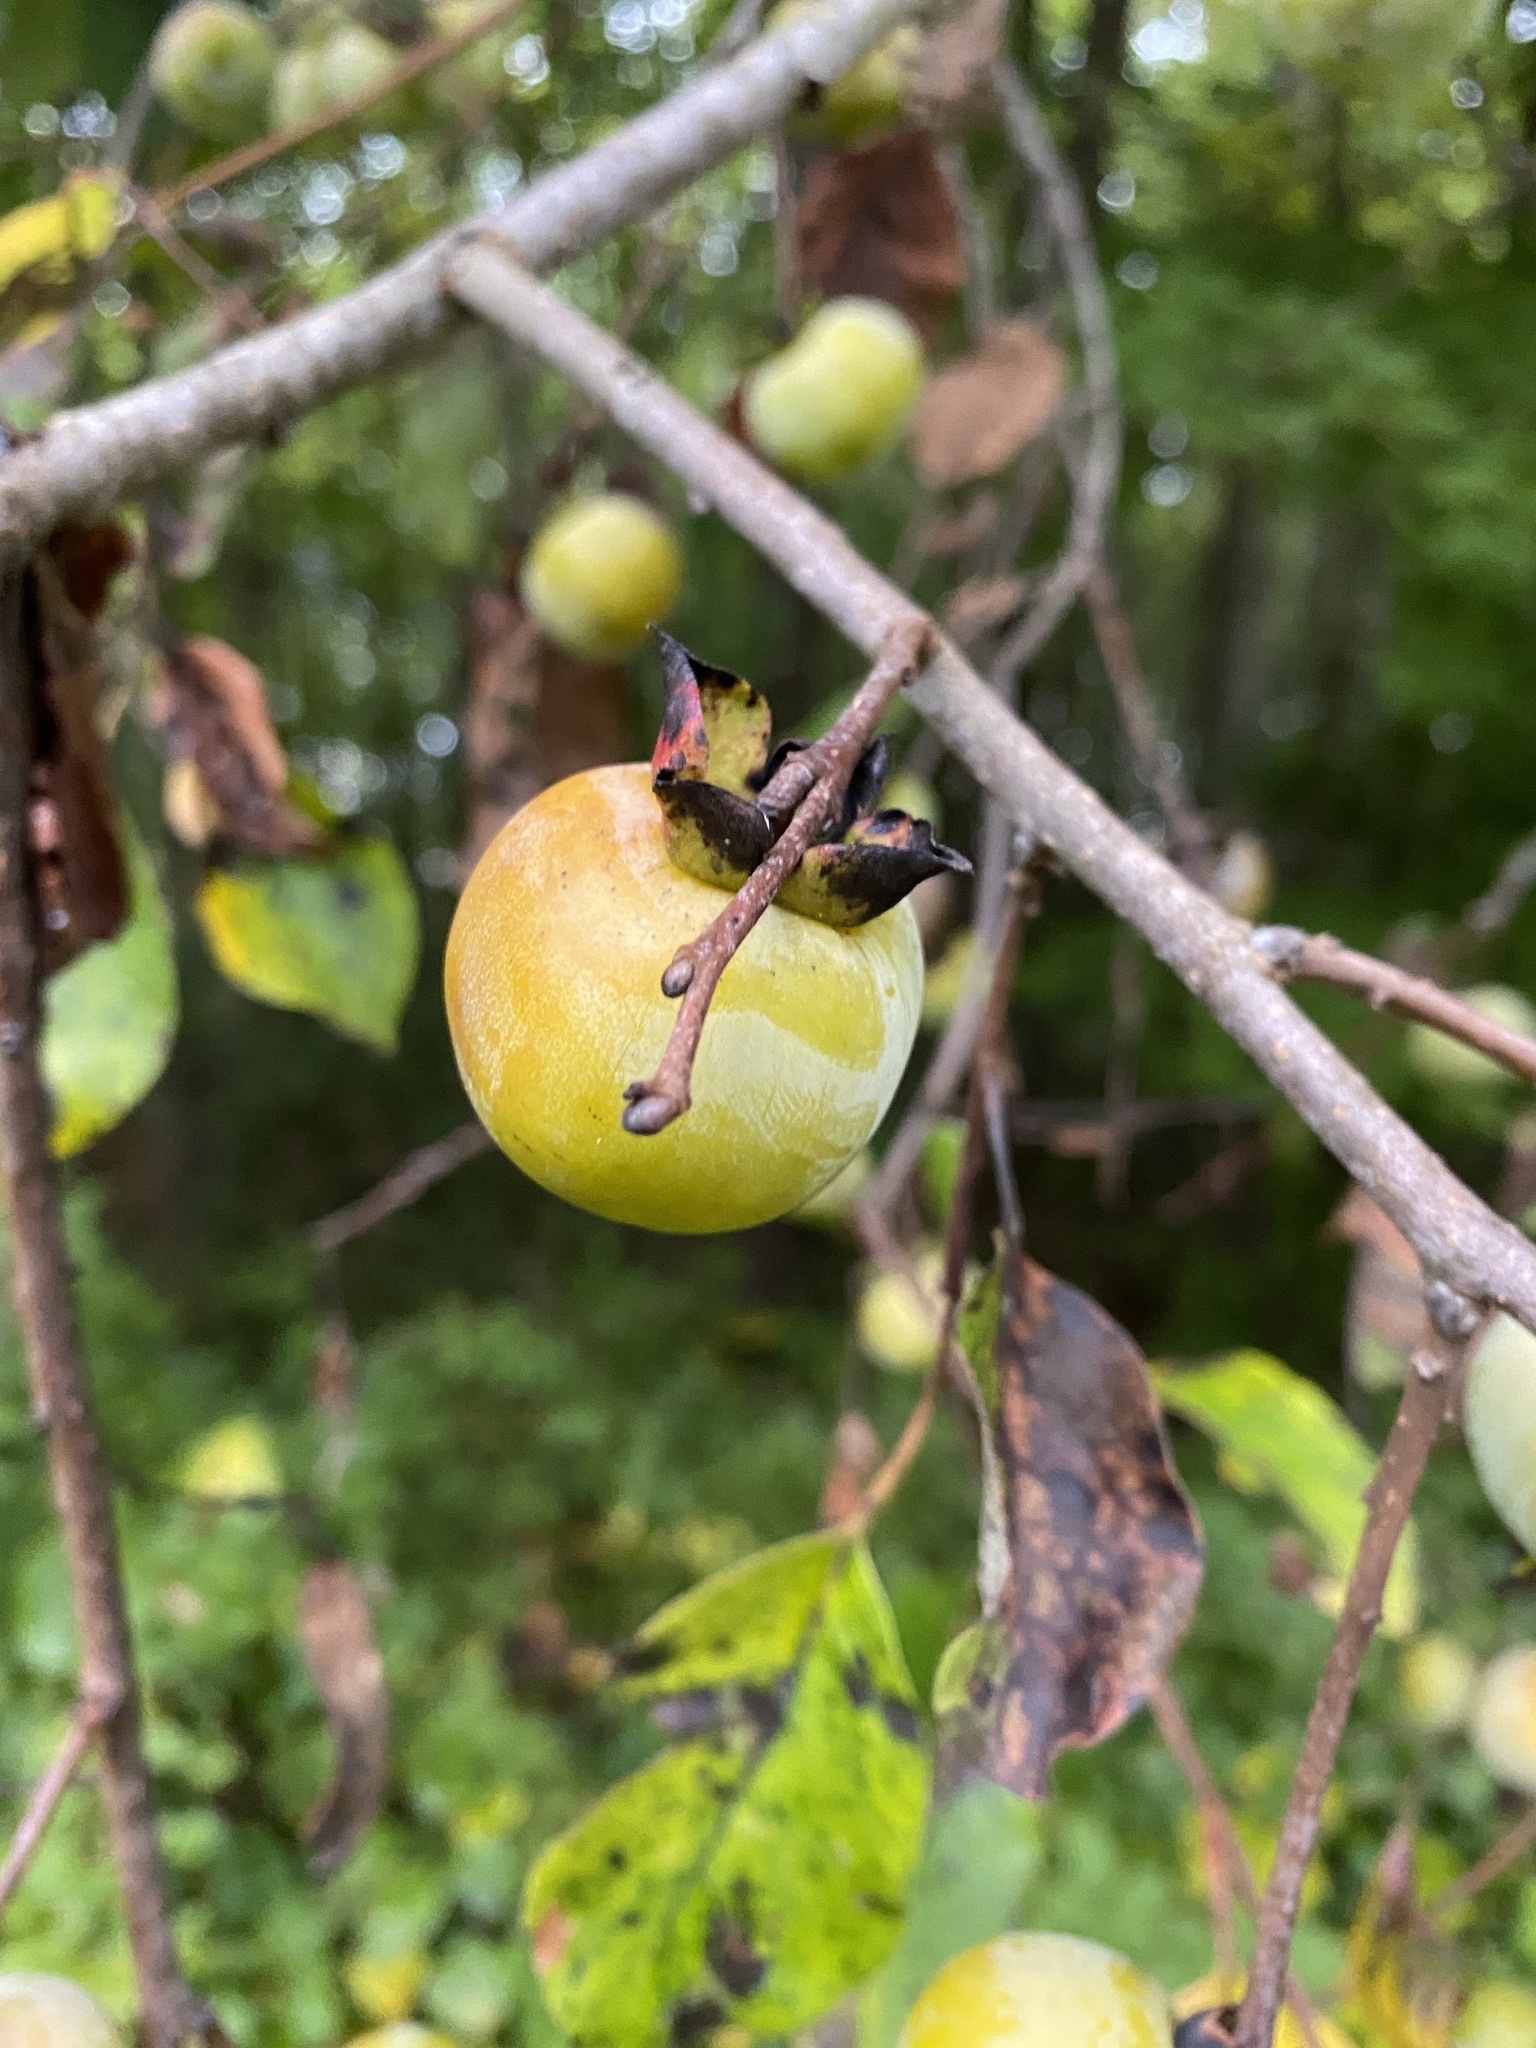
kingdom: Plantae
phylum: Tracheophyta
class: Magnoliopsida
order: Ericales
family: Ebenaceae
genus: Diospyros
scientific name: Diospyros virginiana
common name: Persimmon
